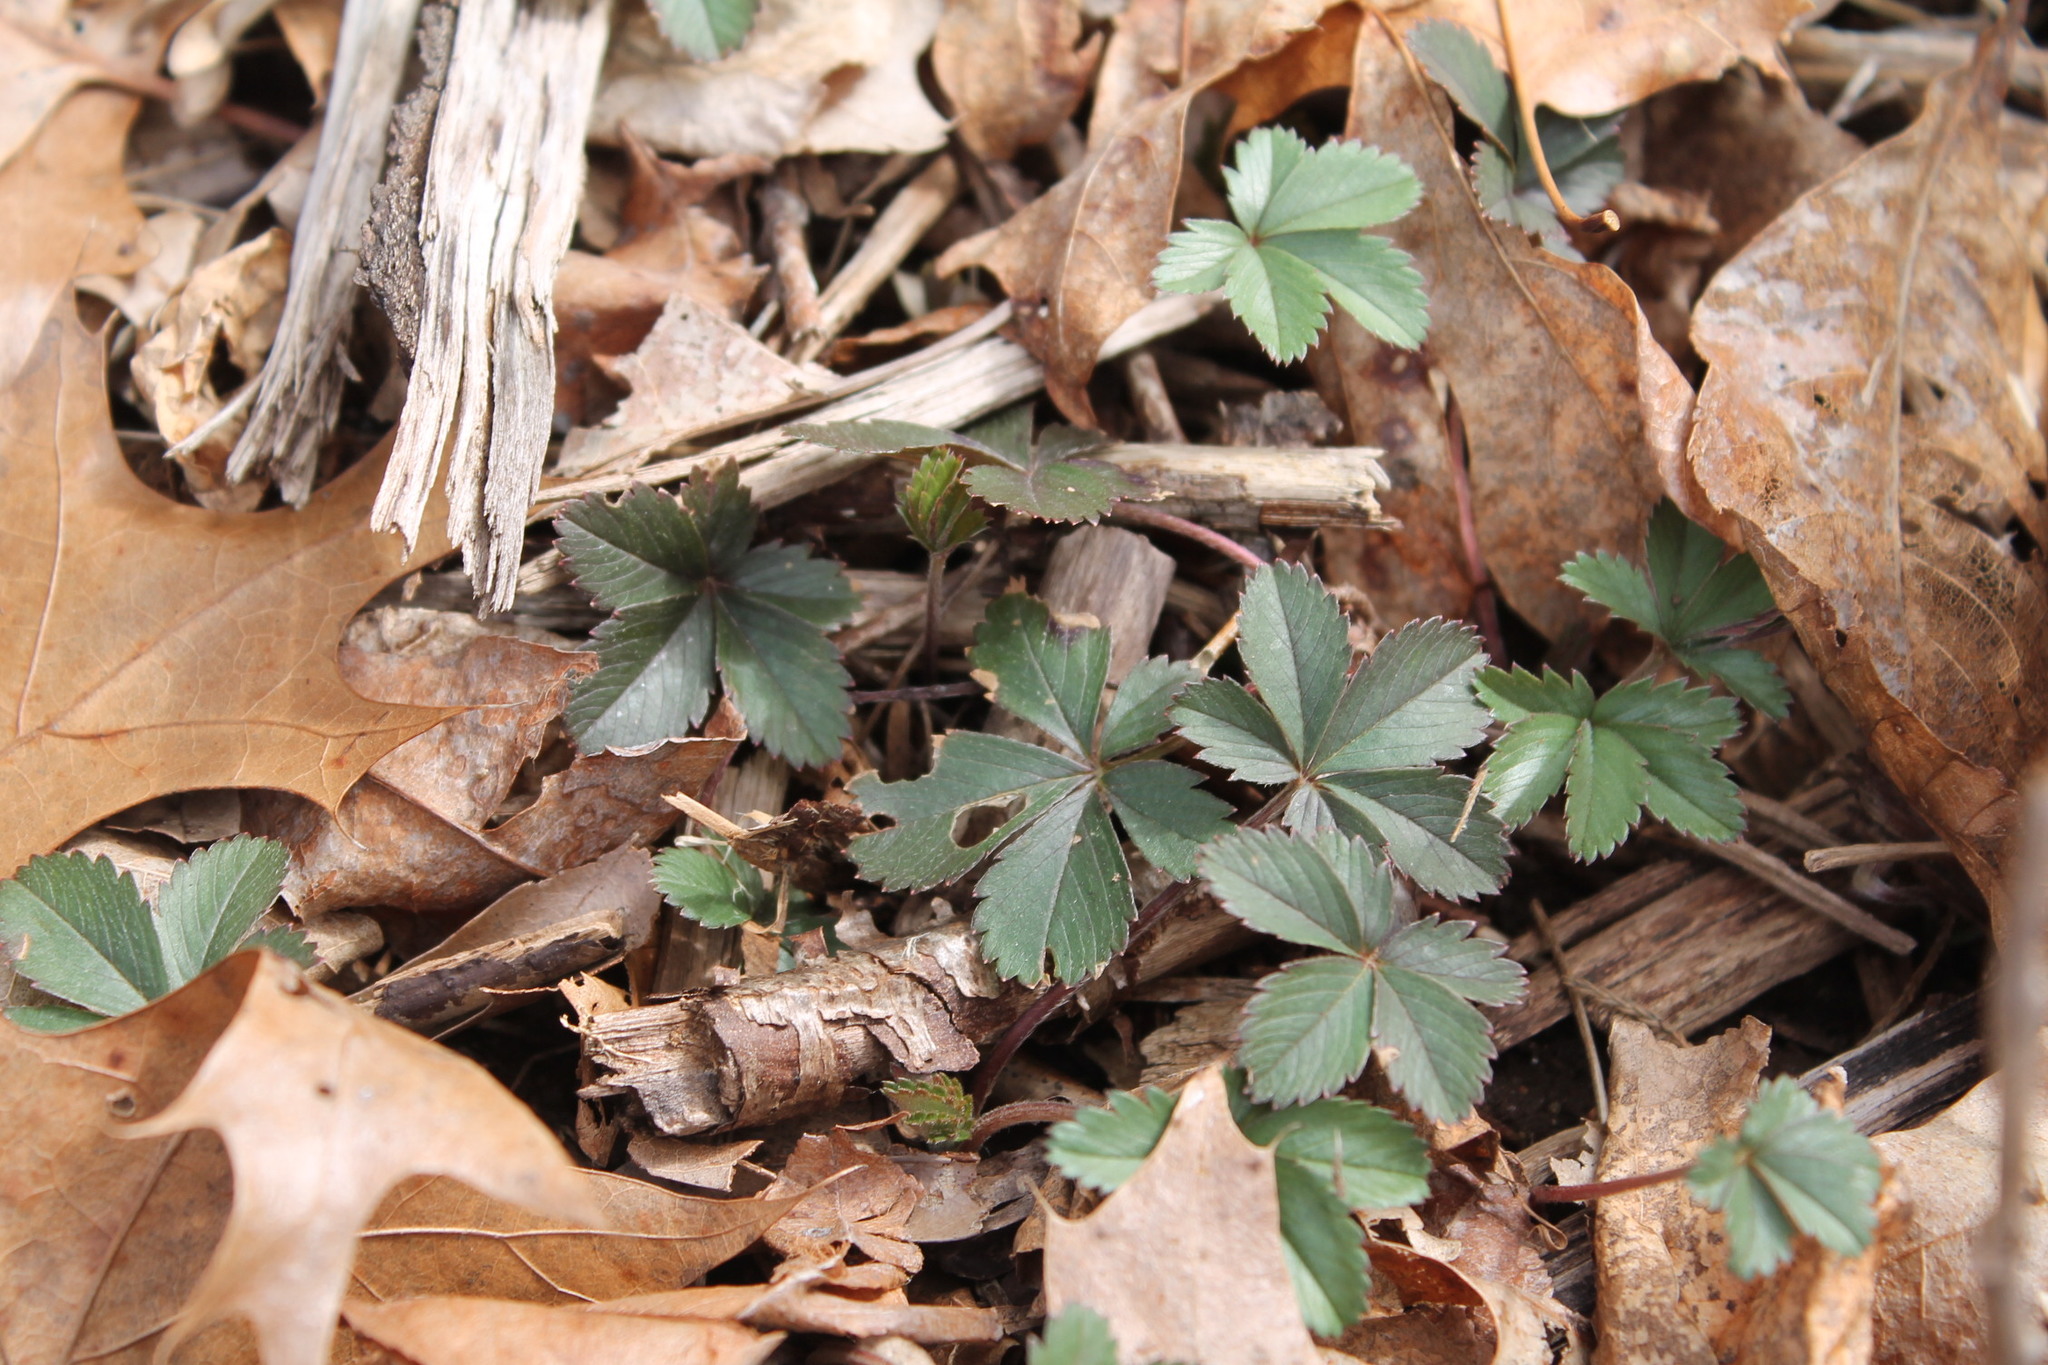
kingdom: Plantae
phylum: Tracheophyta
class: Magnoliopsida
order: Rosales
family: Rosaceae
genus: Potentilla
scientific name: Potentilla canadensis
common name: Canada cinquefoil
